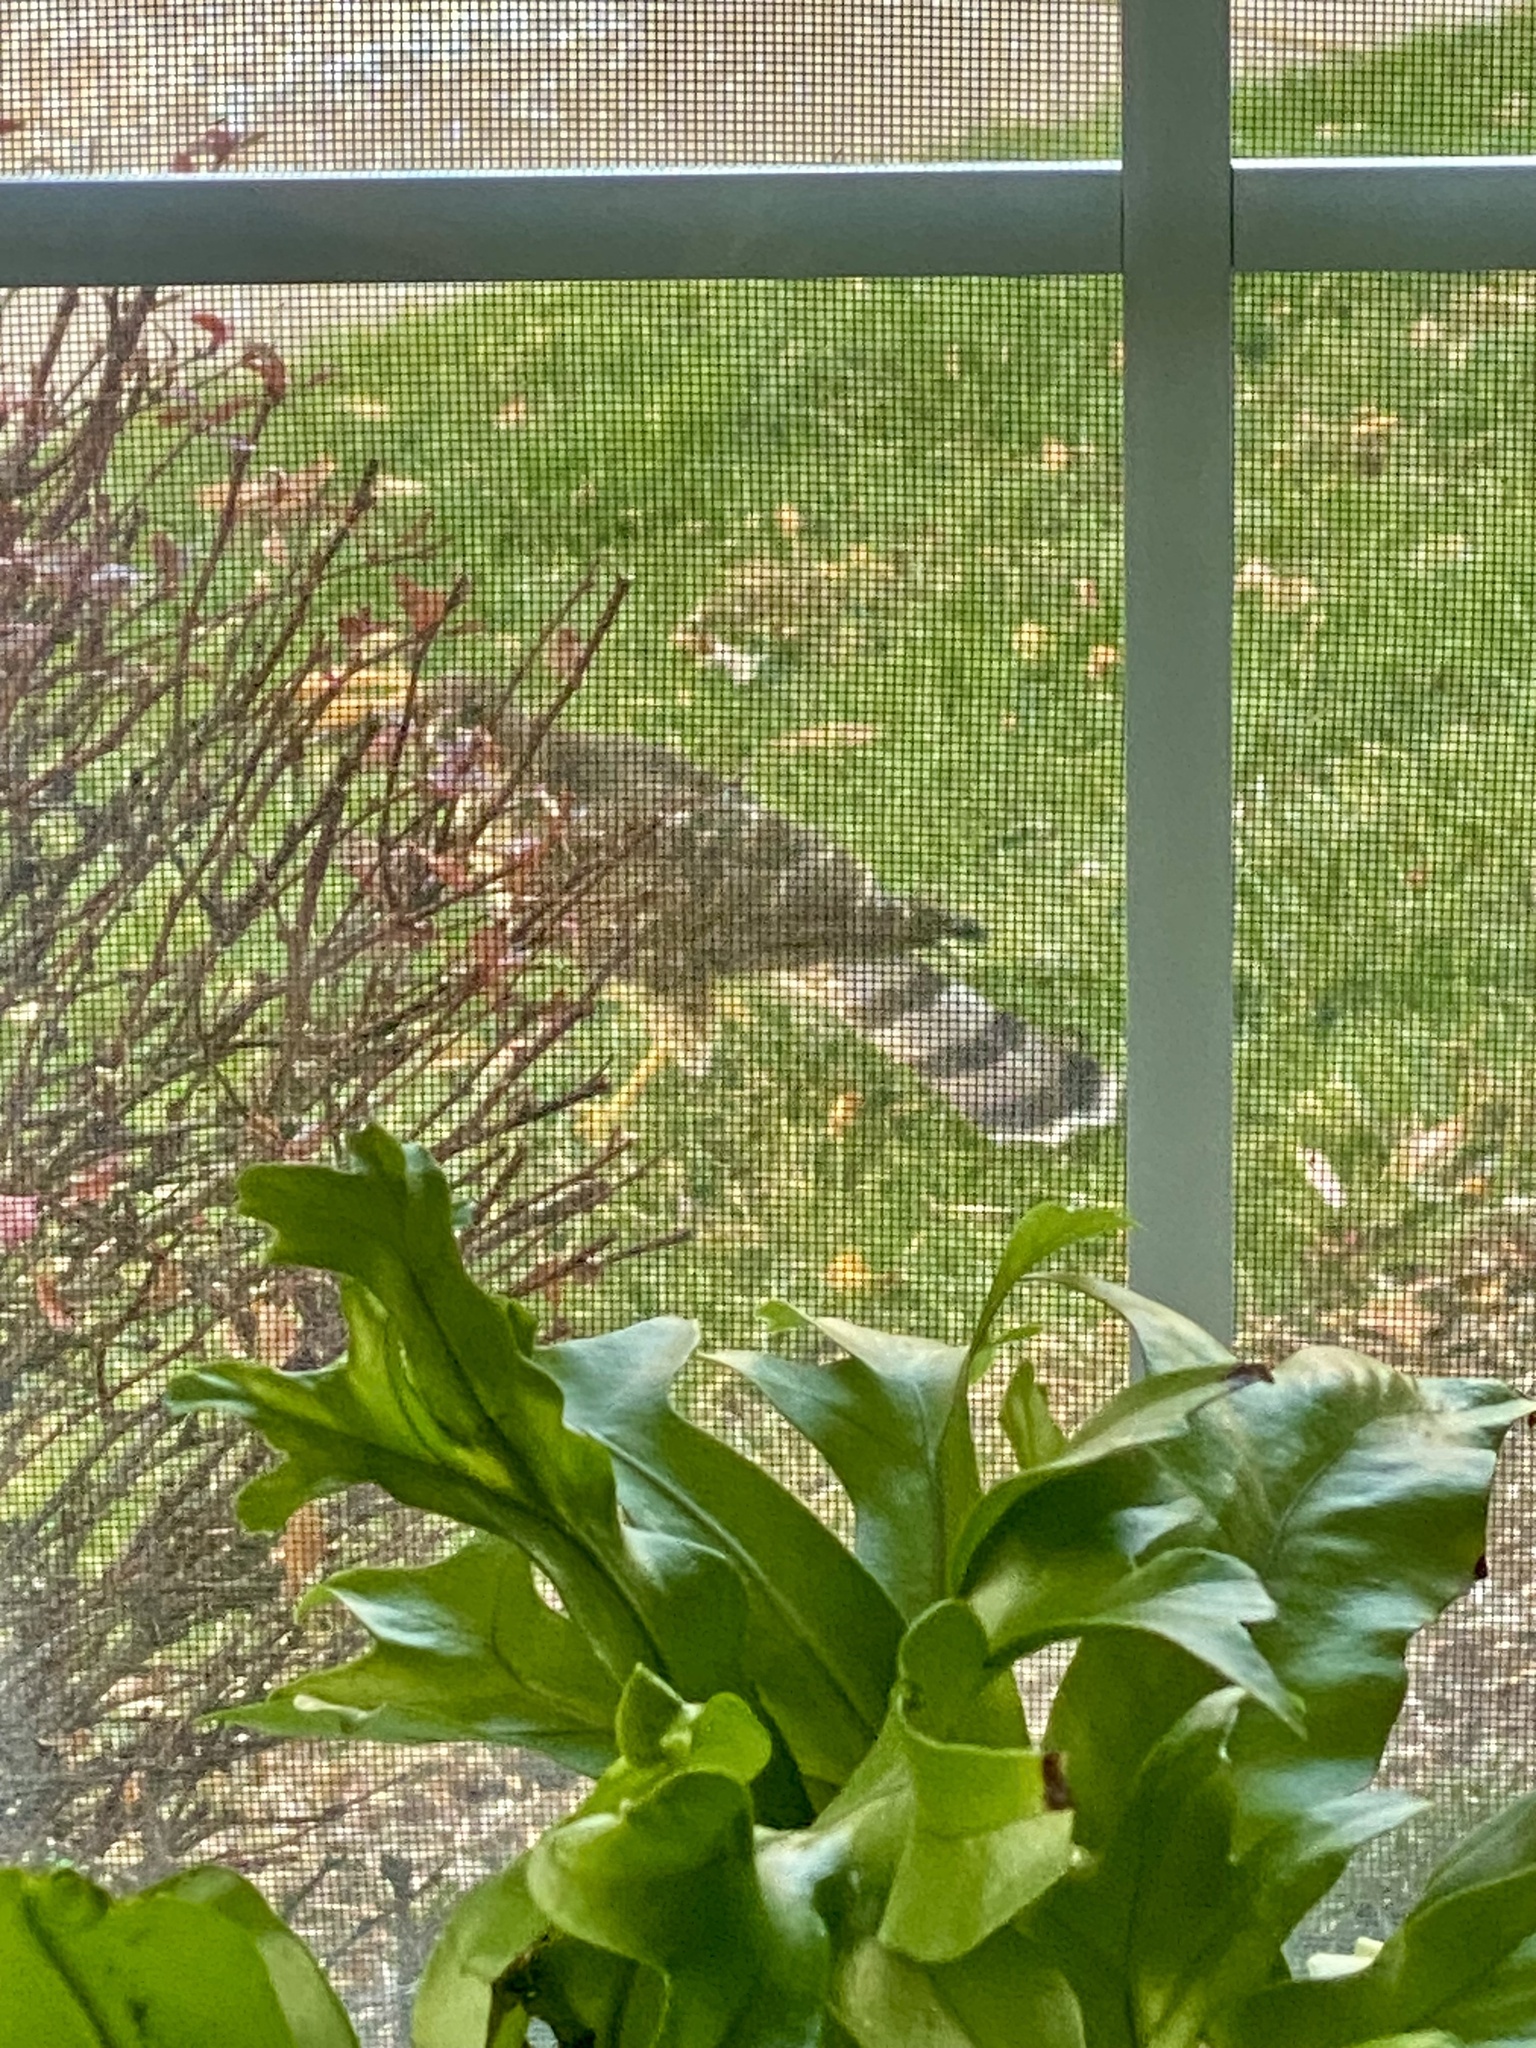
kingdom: Animalia
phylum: Chordata
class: Aves
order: Accipitriformes
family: Accipitridae
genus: Accipiter
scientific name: Accipiter cooperii
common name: Cooper's hawk
